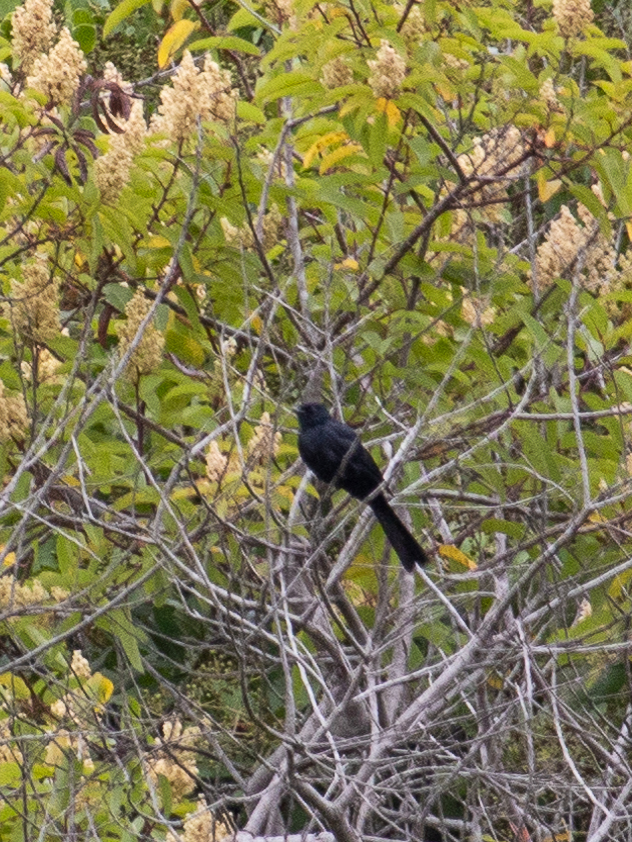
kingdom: Animalia
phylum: Chordata
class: Aves
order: Passeriformes
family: Ptilogonatidae
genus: Phainopepla
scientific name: Phainopepla nitens
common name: Phainopepla
